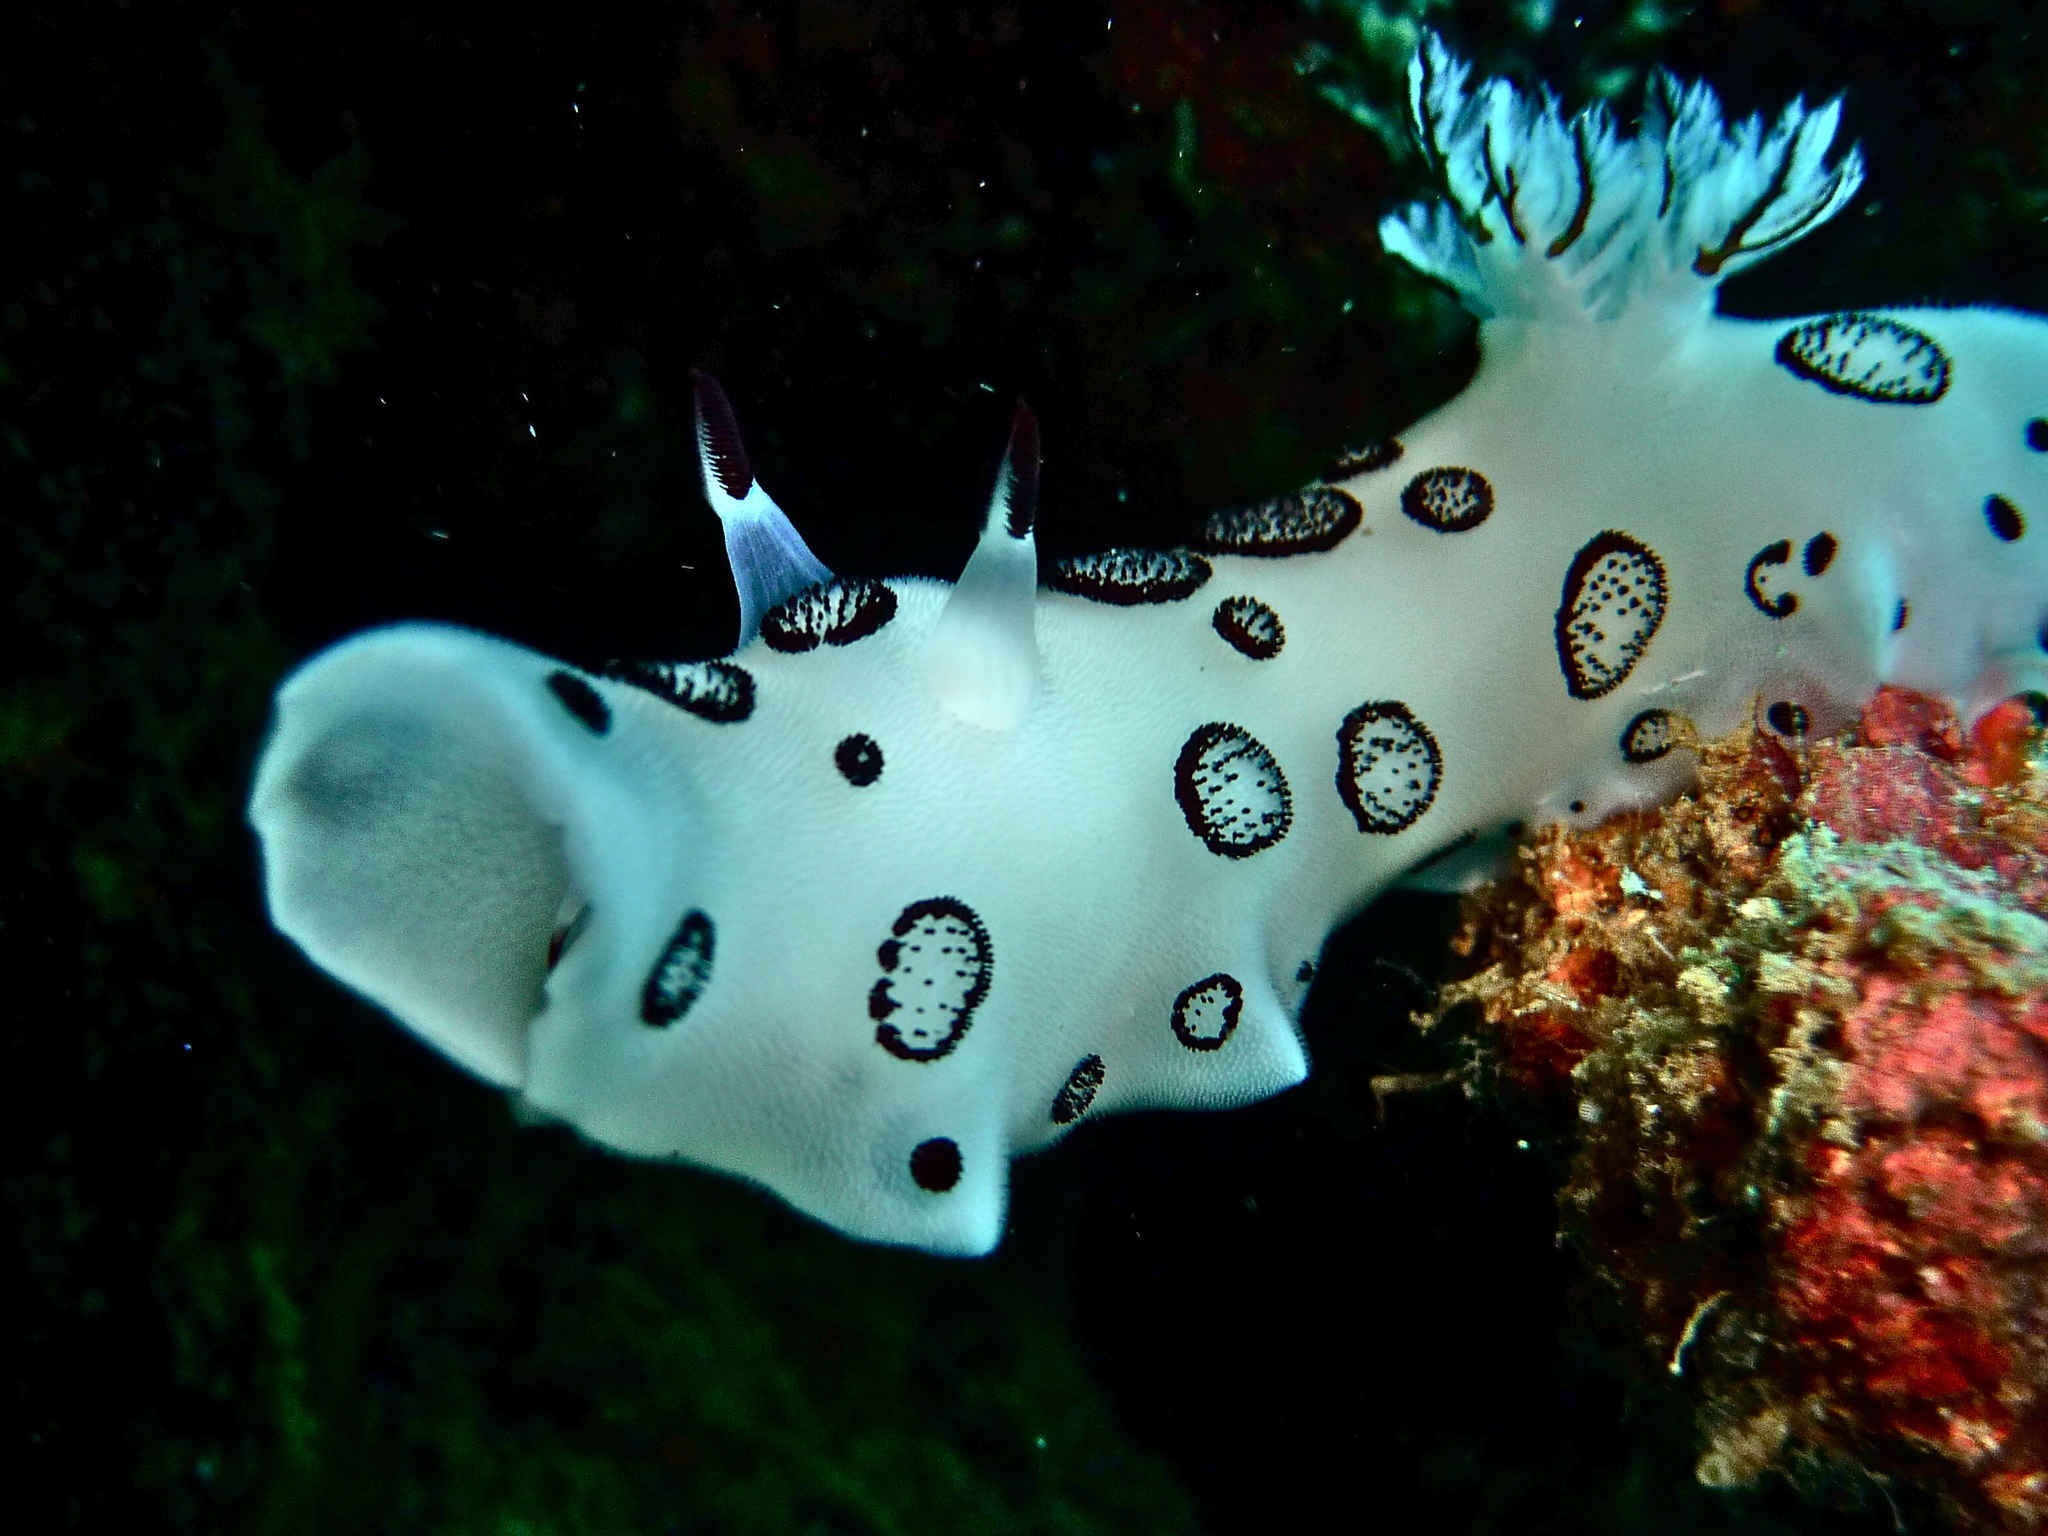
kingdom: Animalia
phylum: Mollusca
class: Gastropoda
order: Nudibranchia
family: Discodorididae
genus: Jorunna
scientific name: Jorunna funebris
